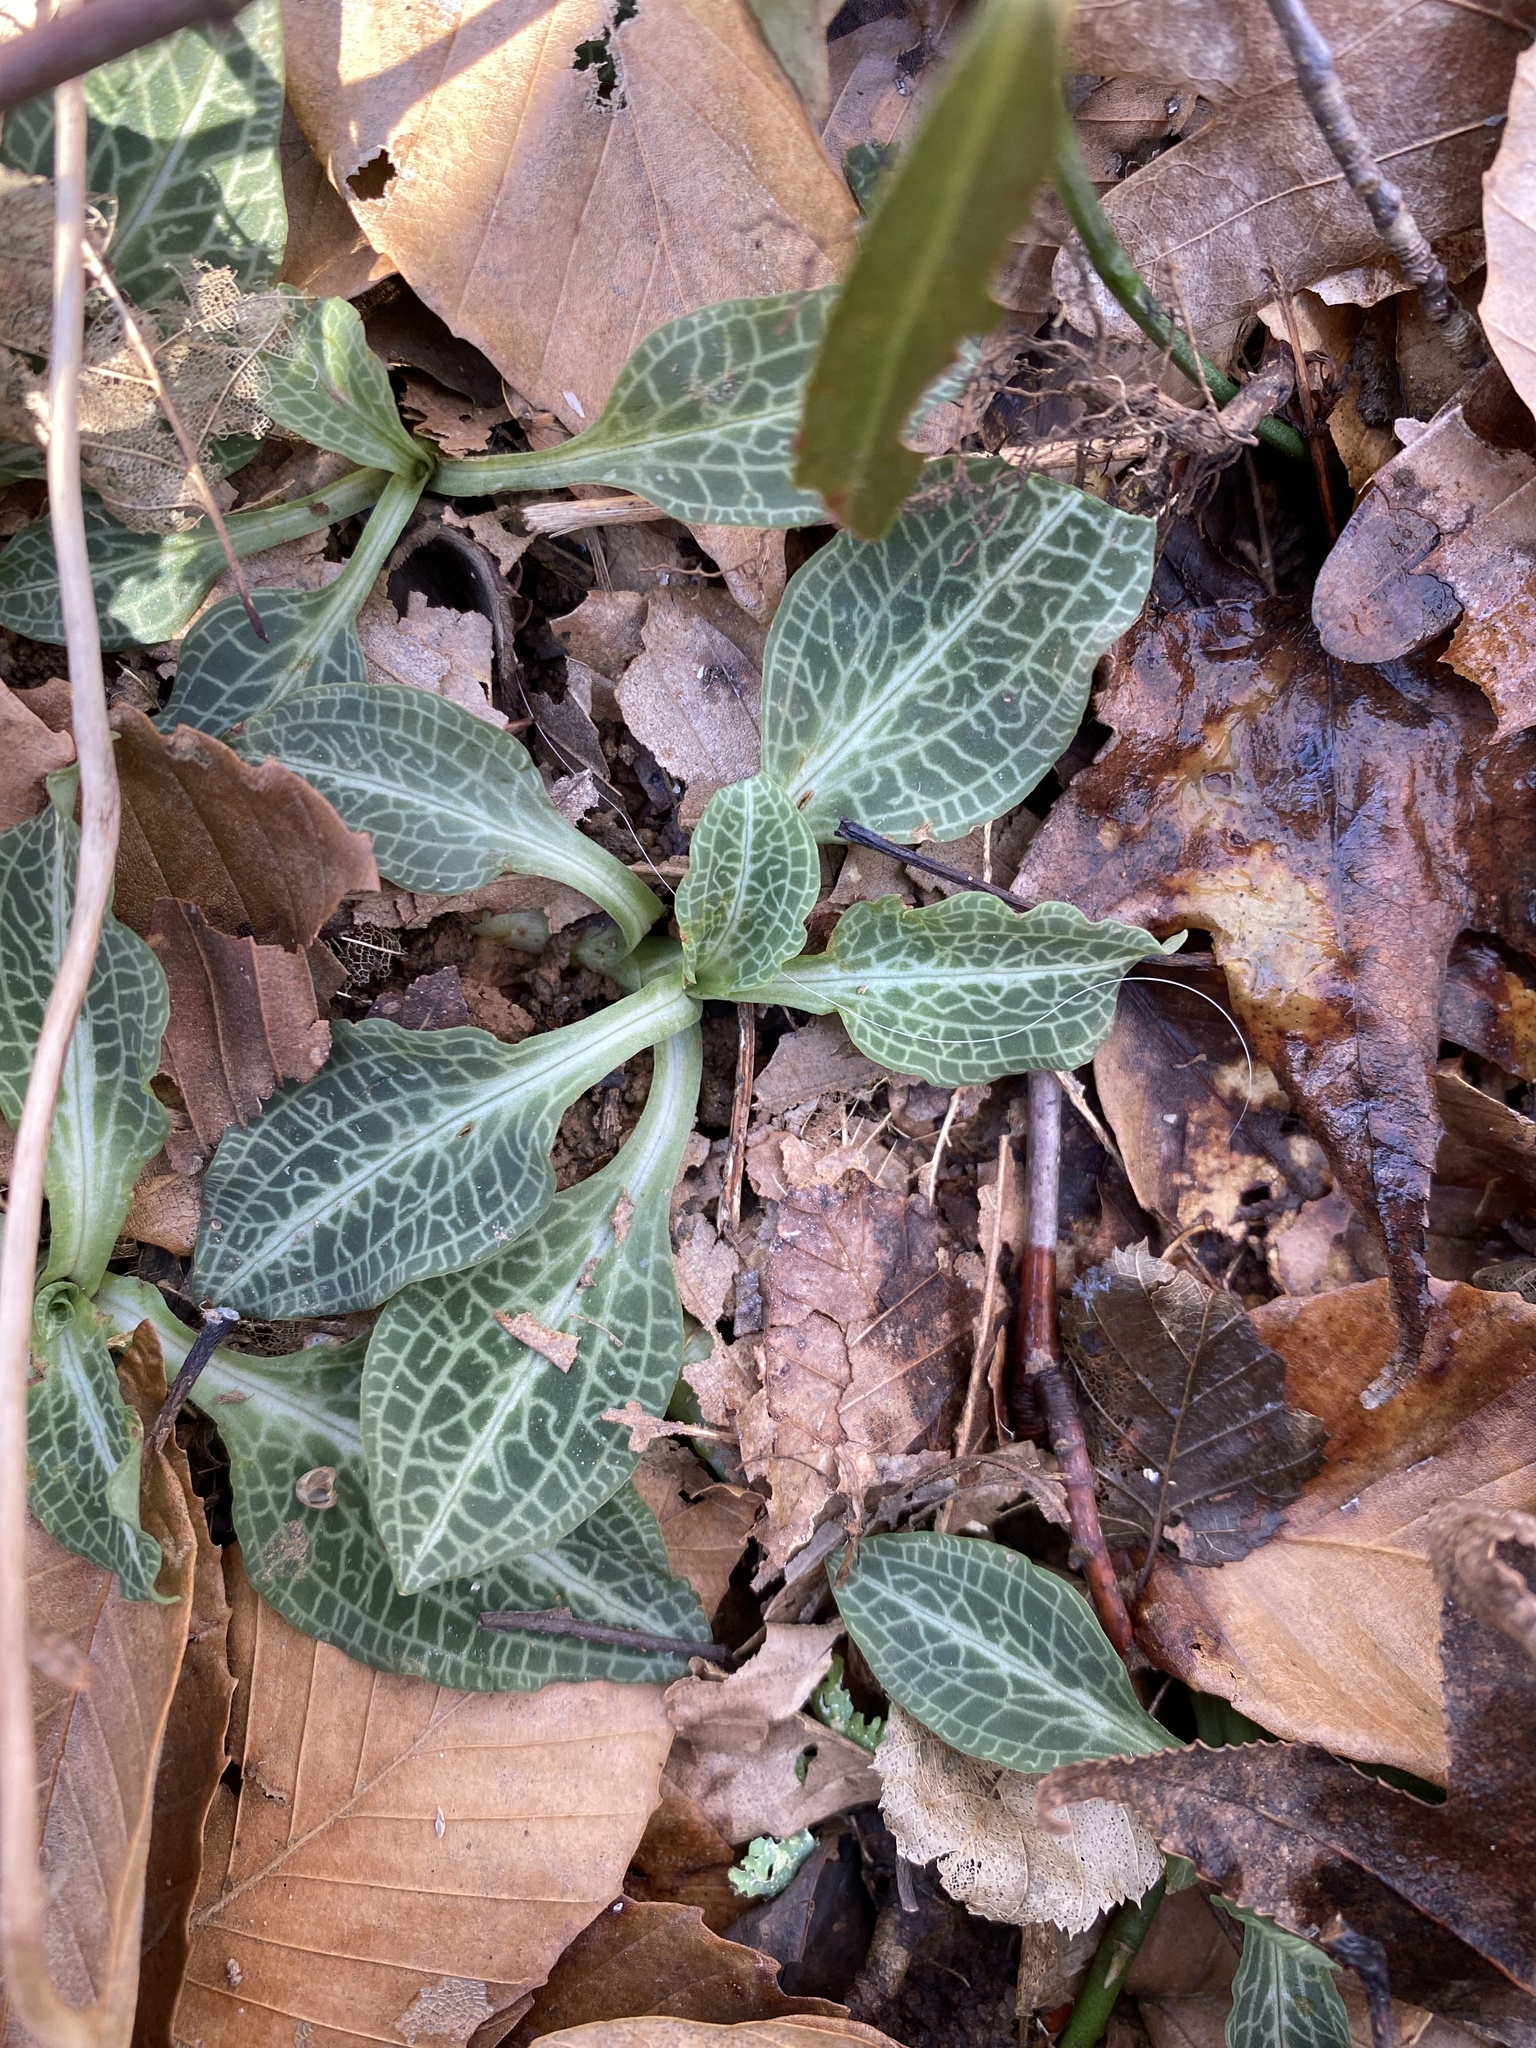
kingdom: Plantae
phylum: Tracheophyta
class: Liliopsida
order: Asparagales
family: Orchidaceae
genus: Goodyera
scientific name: Goodyera pubescens
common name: Downy rattlesnake-plantain
